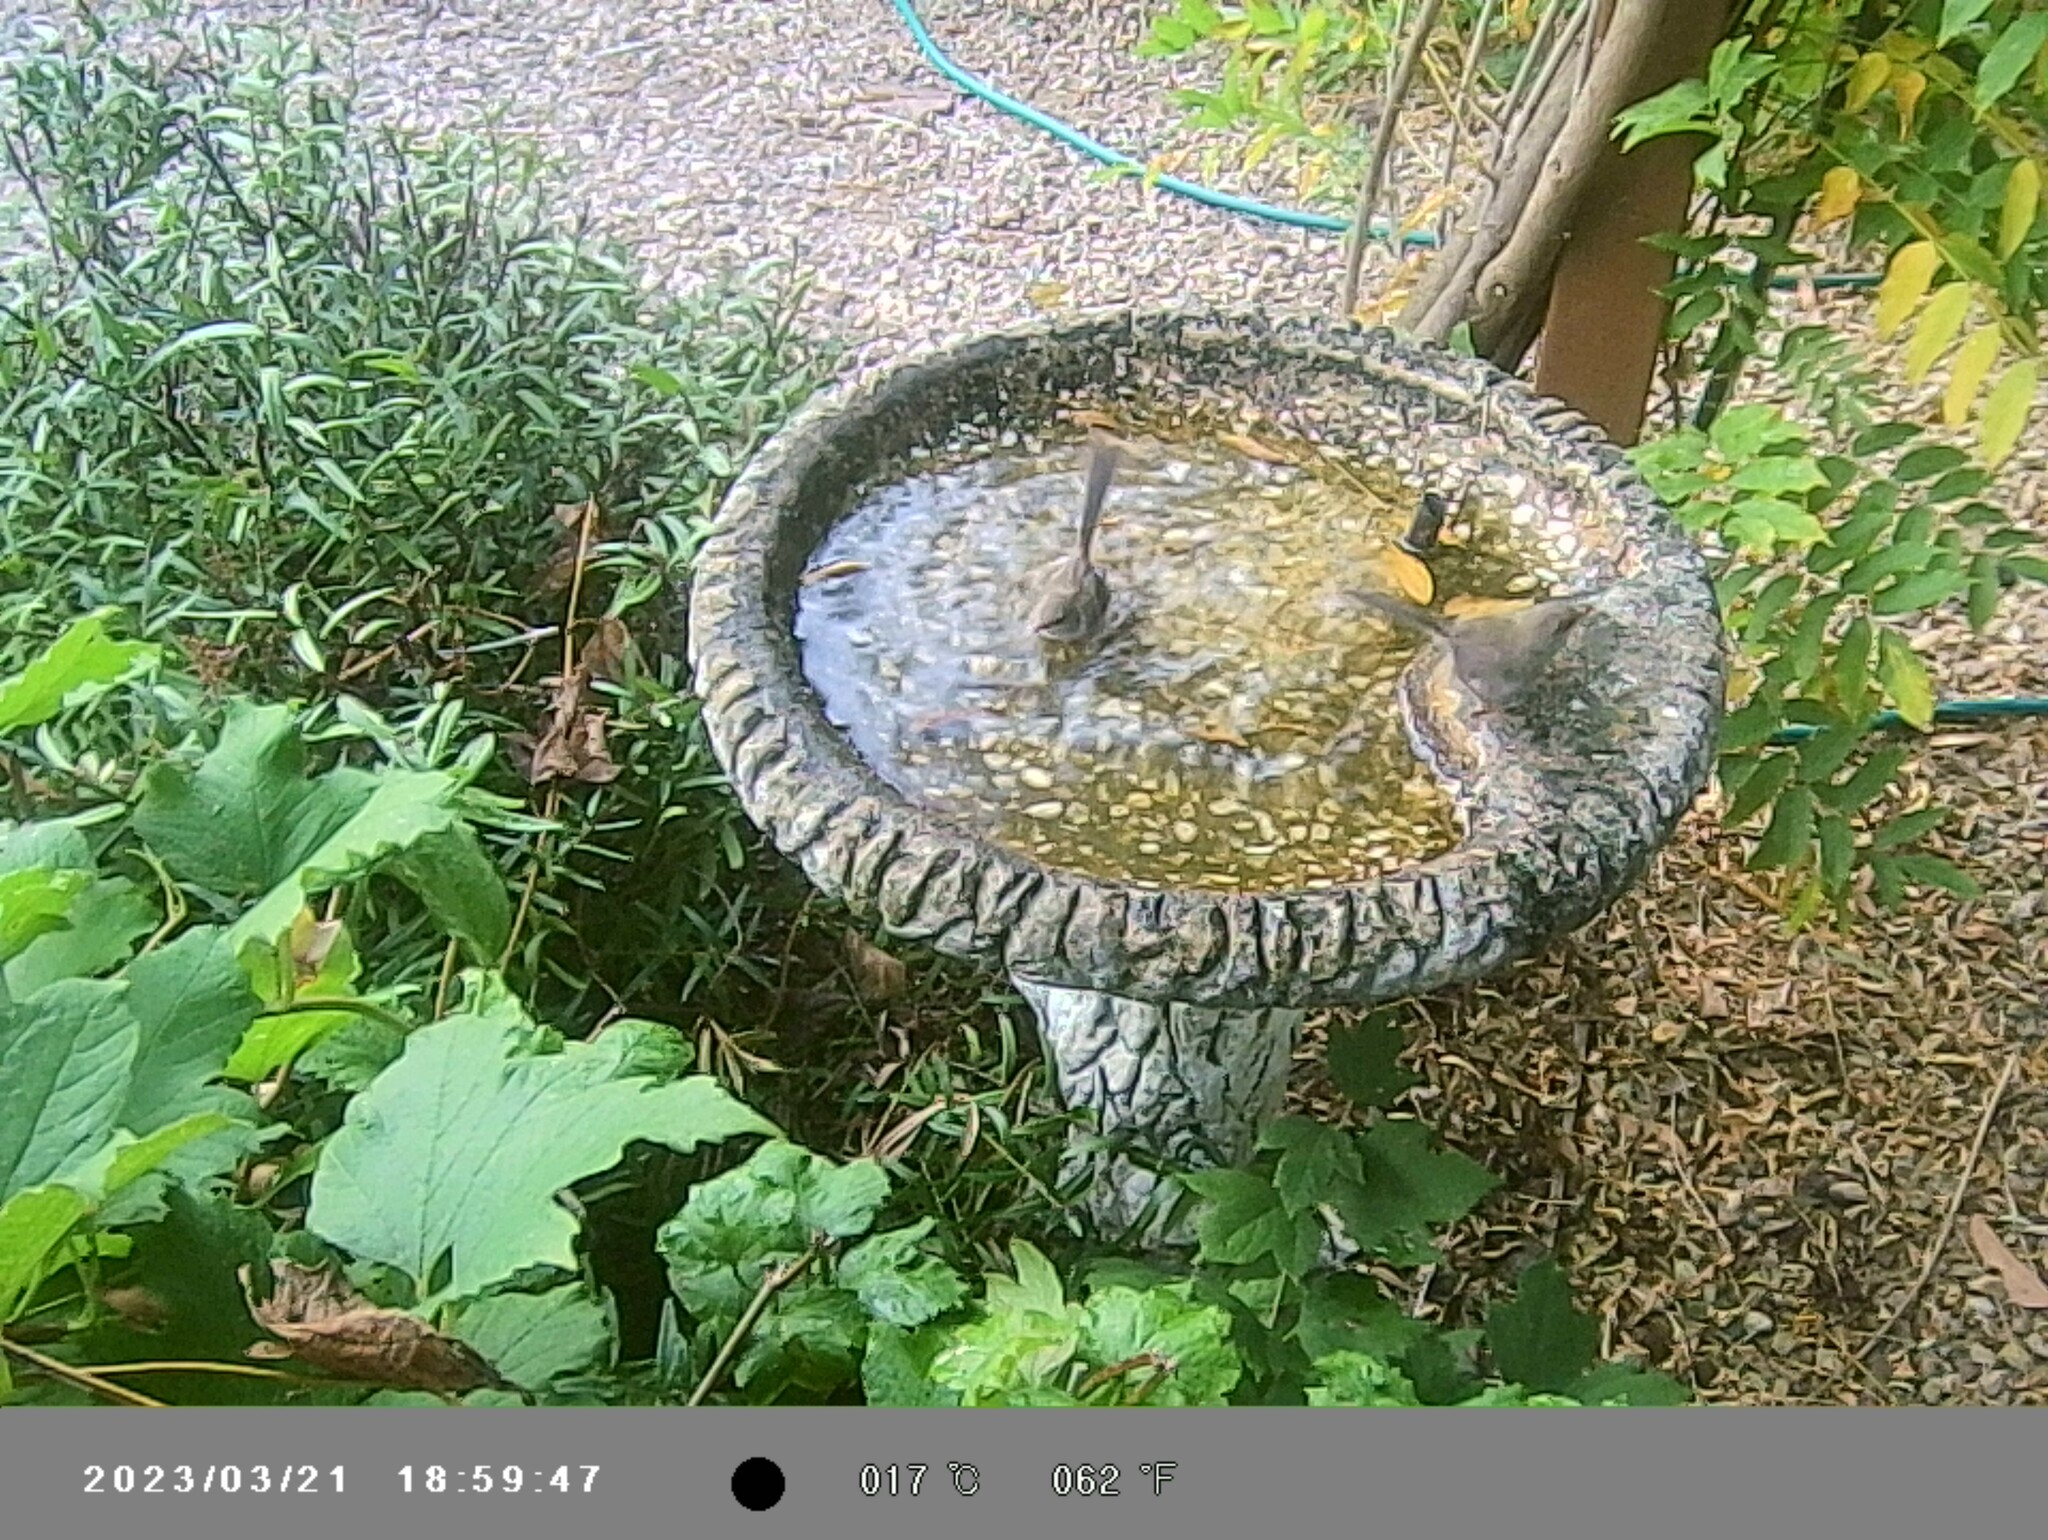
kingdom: Animalia
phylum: Chordata
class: Aves
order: Passeriformes
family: Maluridae
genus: Malurus
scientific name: Malurus cyaneus
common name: Superb fairywren
